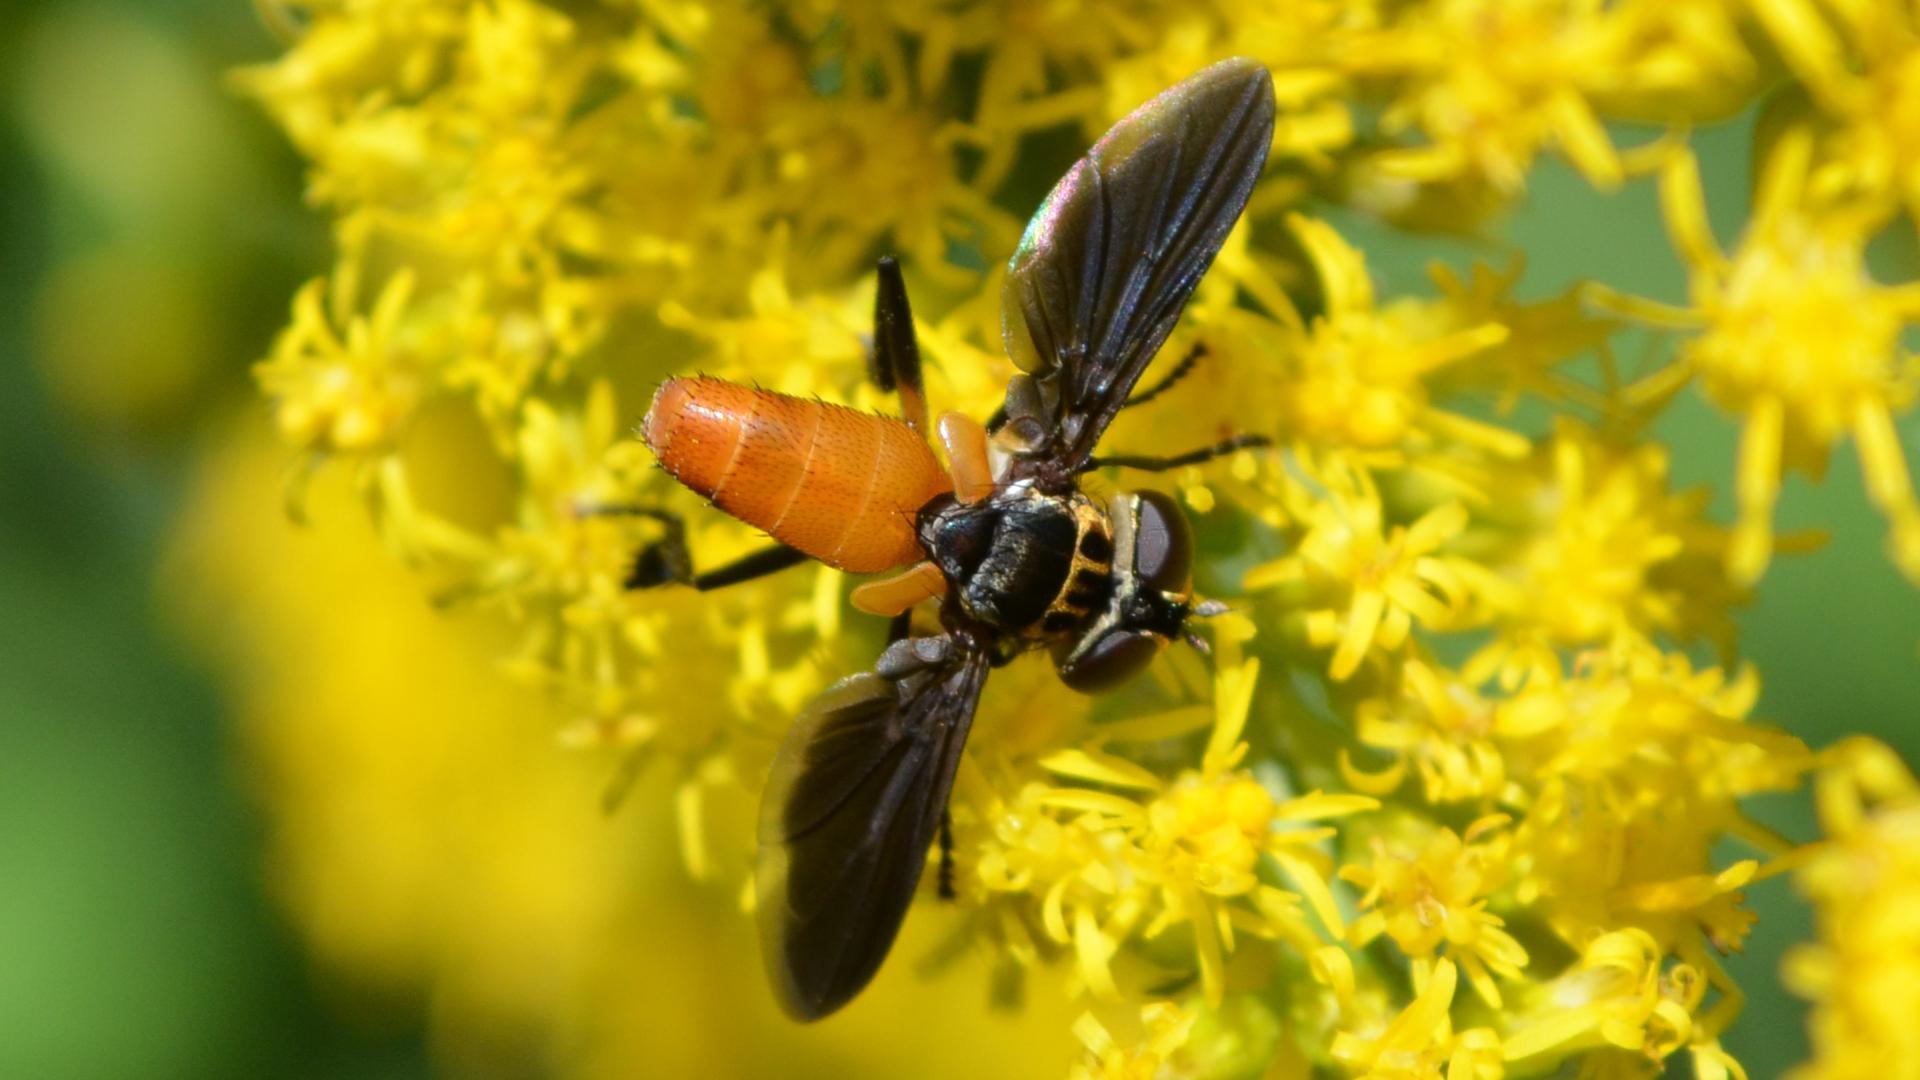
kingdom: Animalia
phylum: Arthropoda
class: Insecta
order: Diptera
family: Tachinidae
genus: Trichopoda
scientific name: Trichopoda pennipes
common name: Tachinid fly
